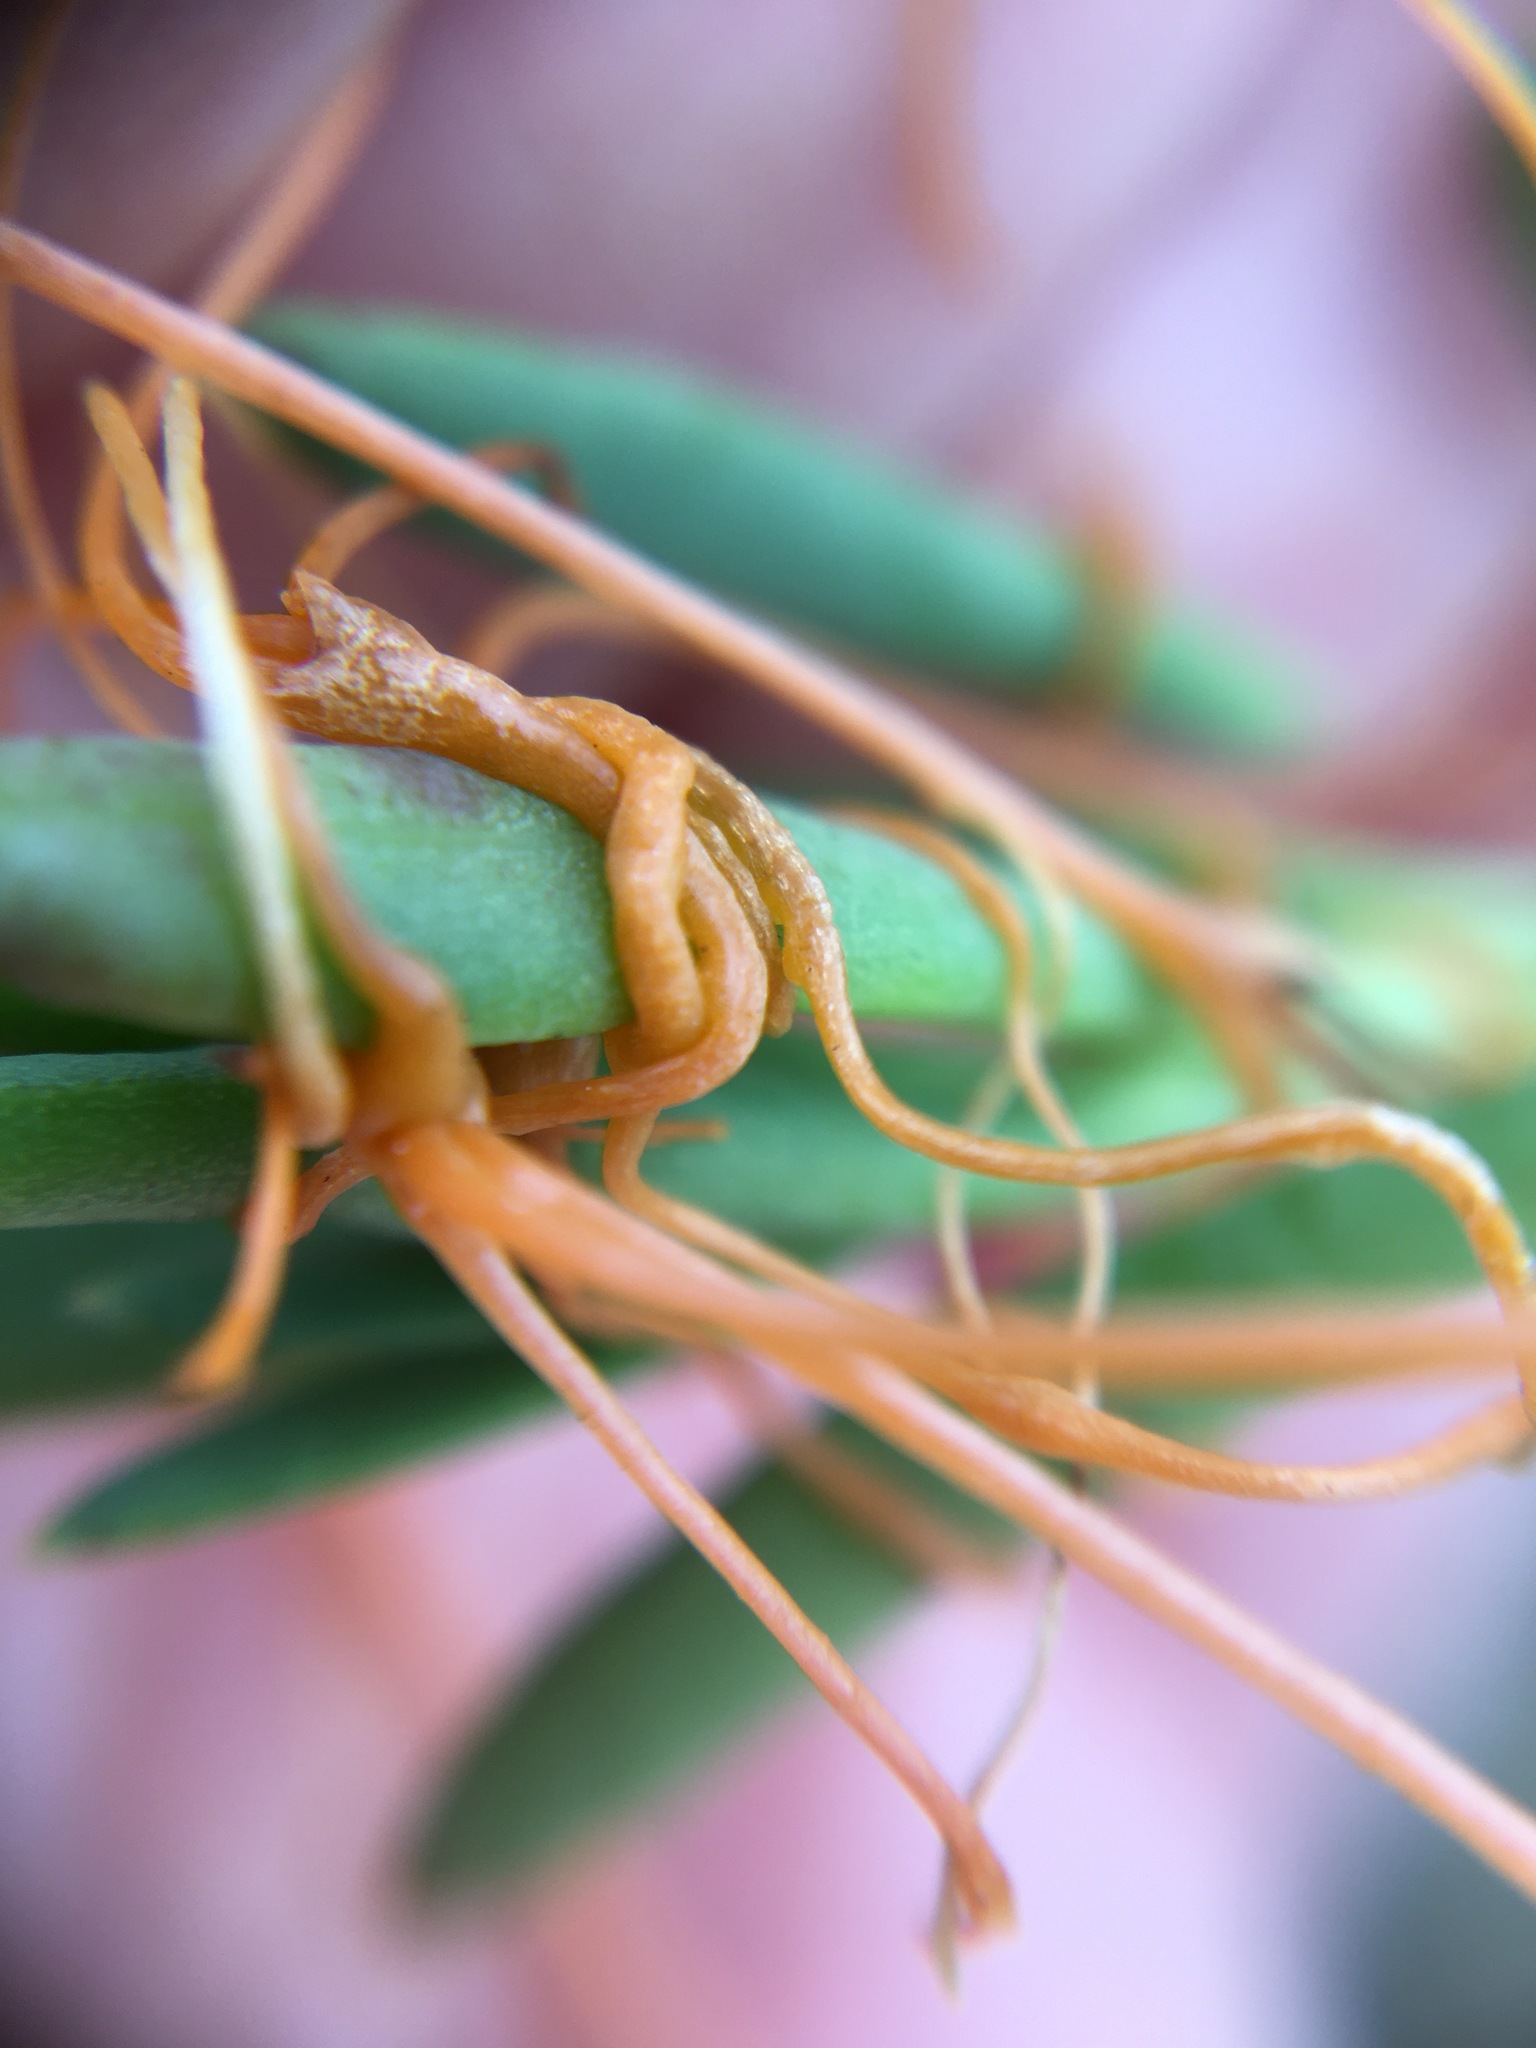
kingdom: Plantae
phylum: Tracheophyta
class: Magnoliopsida
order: Solanales
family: Convolvulaceae
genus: Cuscuta
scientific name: Cuscuta pacifica
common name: Large saltmarsh dodder
